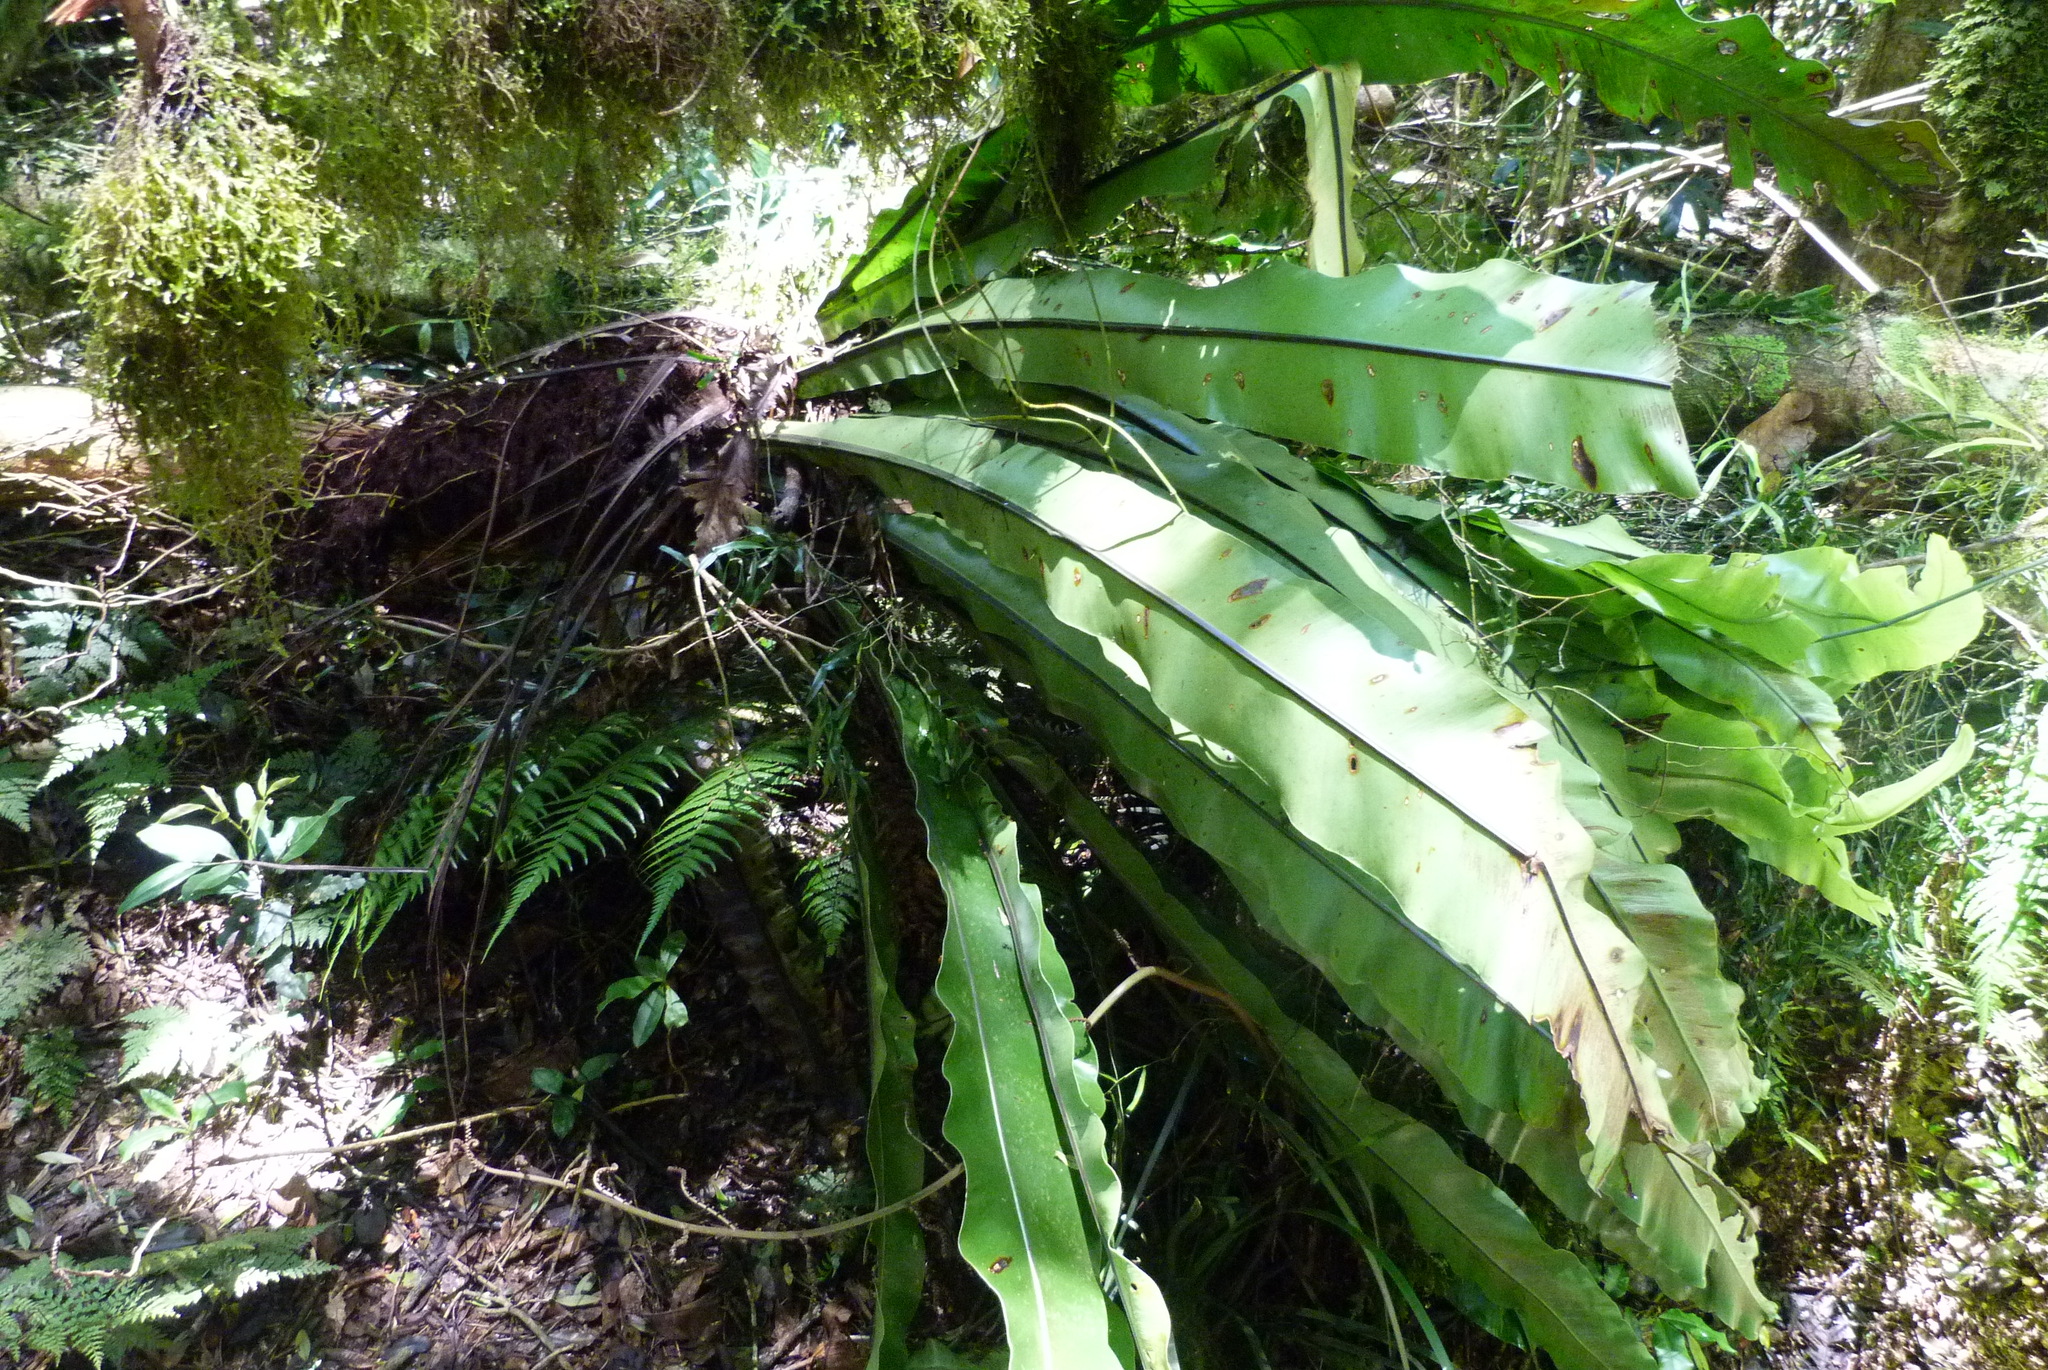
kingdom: Plantae
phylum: Tracheophyta
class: Polypodiopsida
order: Polypodiales
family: Aspleniaceae
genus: Asplenium
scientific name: Asplenium australasicum
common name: Bird's-nest fern
